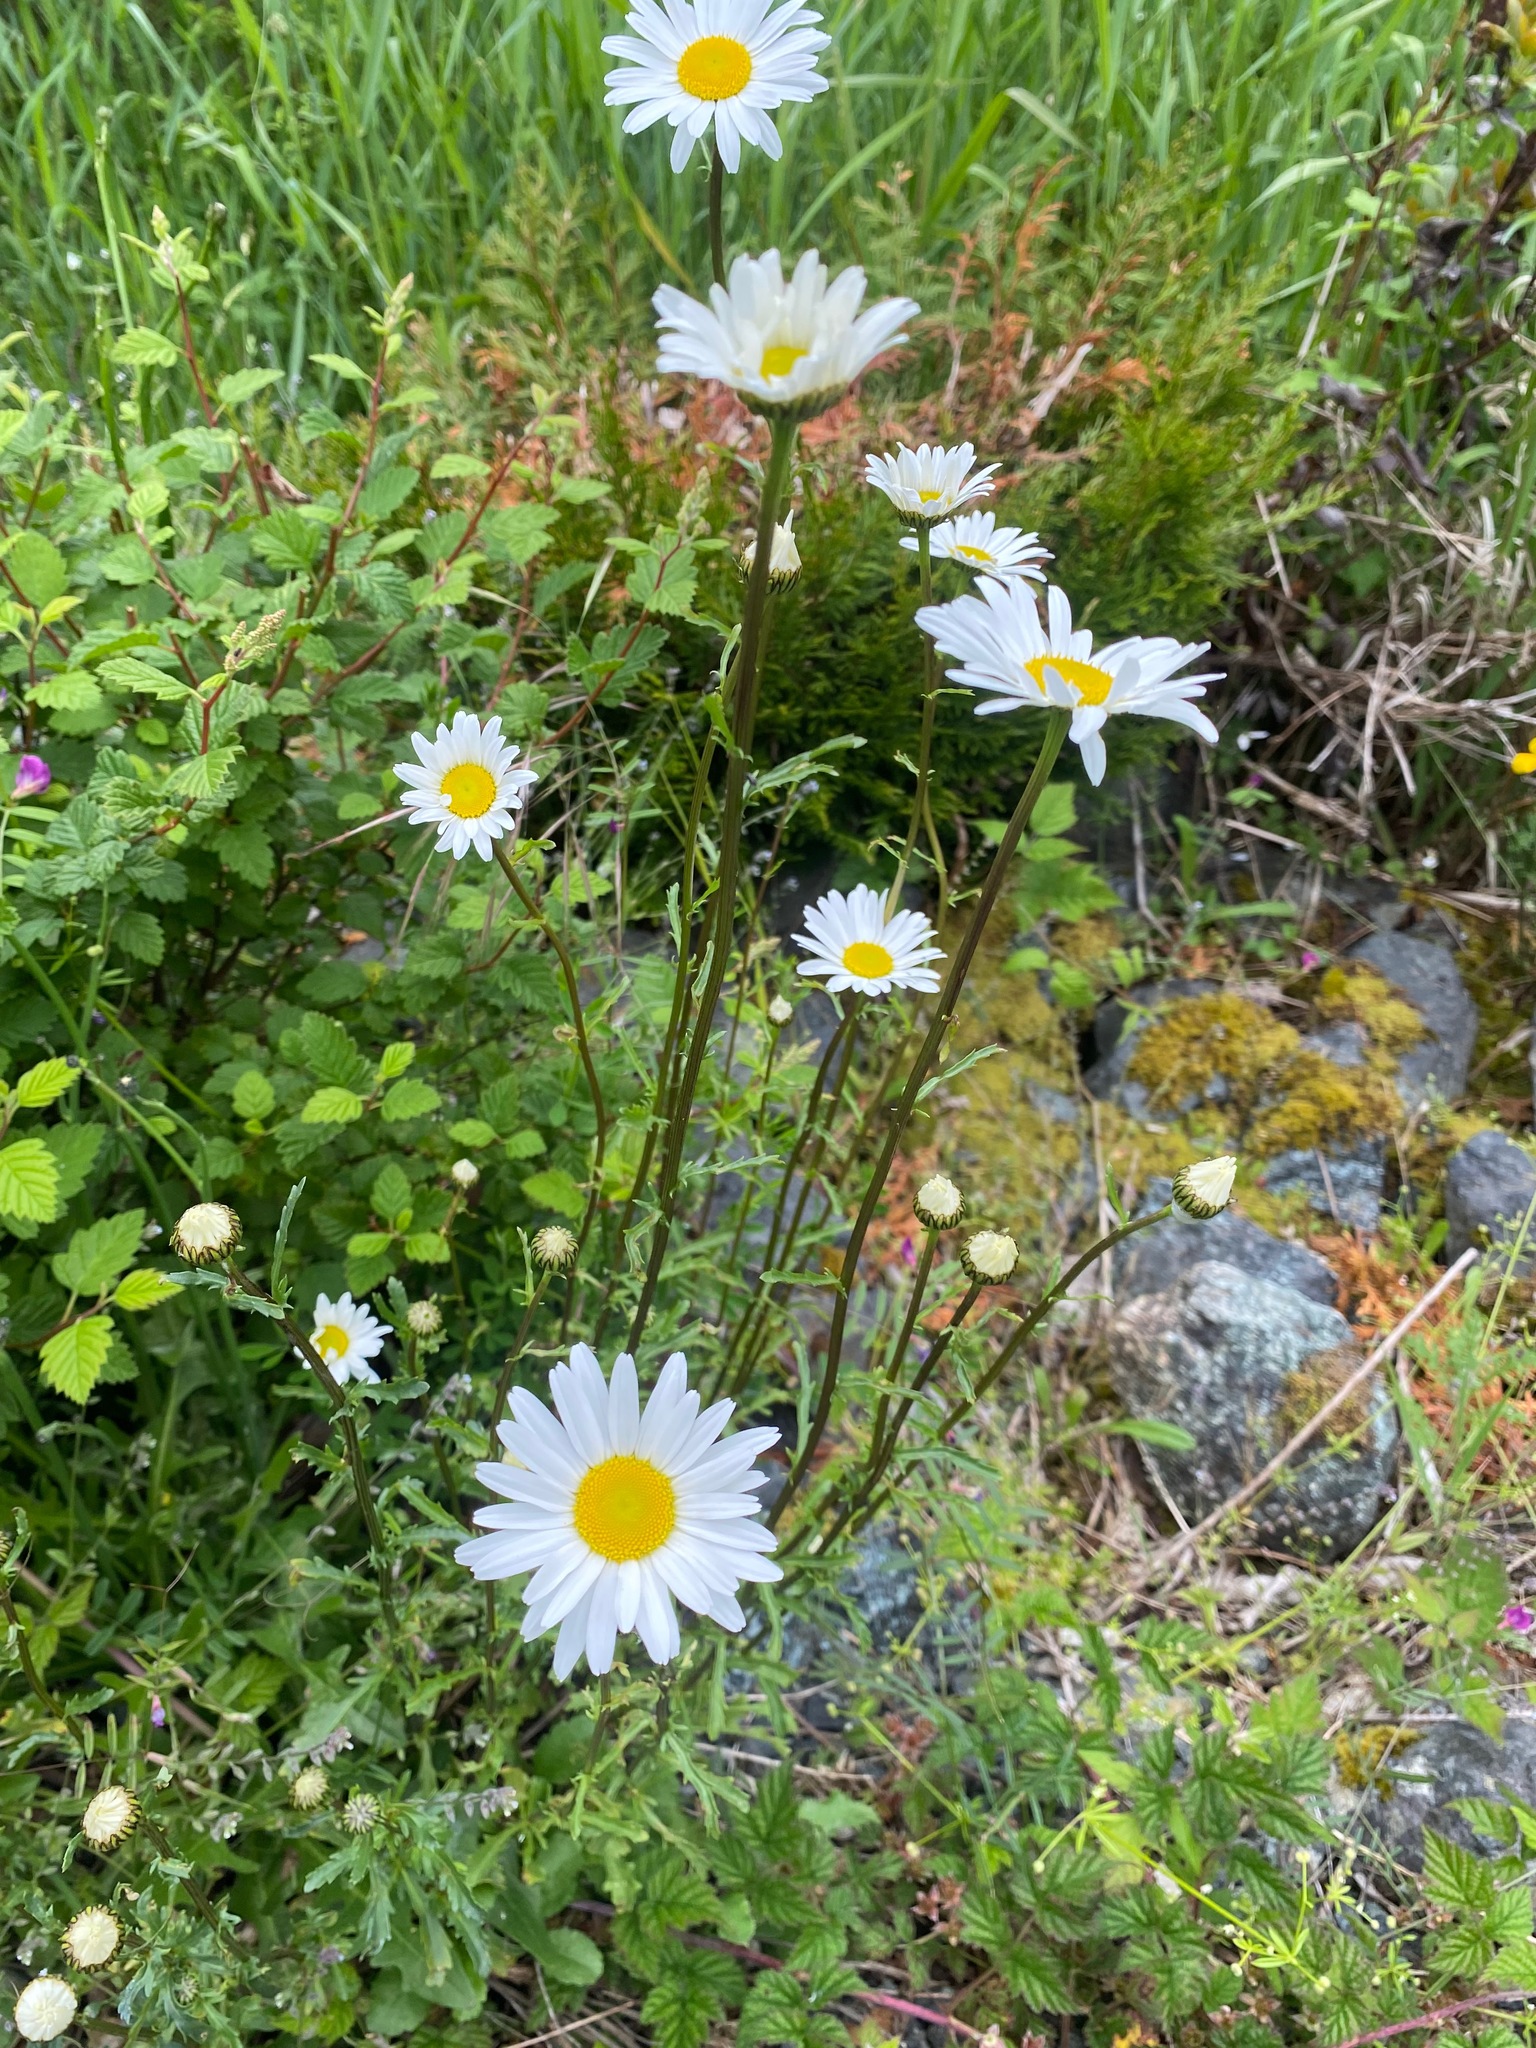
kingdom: Plantae
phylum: Tracheophyta
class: Magnoliopsida
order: Asterales
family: Asteraceae
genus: Leucanthemum
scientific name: Leucanthemum vulgare
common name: Oxeye daisy
